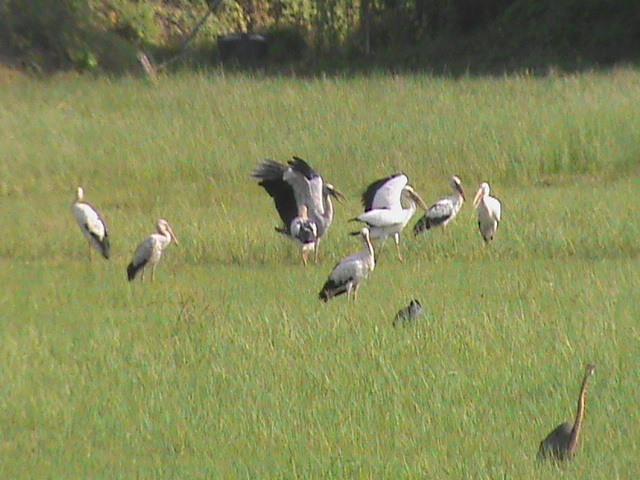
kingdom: Animalia
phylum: Chordata
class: Aves
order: Pelecaniformes
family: Ardeidae
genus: Ardea
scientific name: Ardea purpurea
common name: Purple heron
